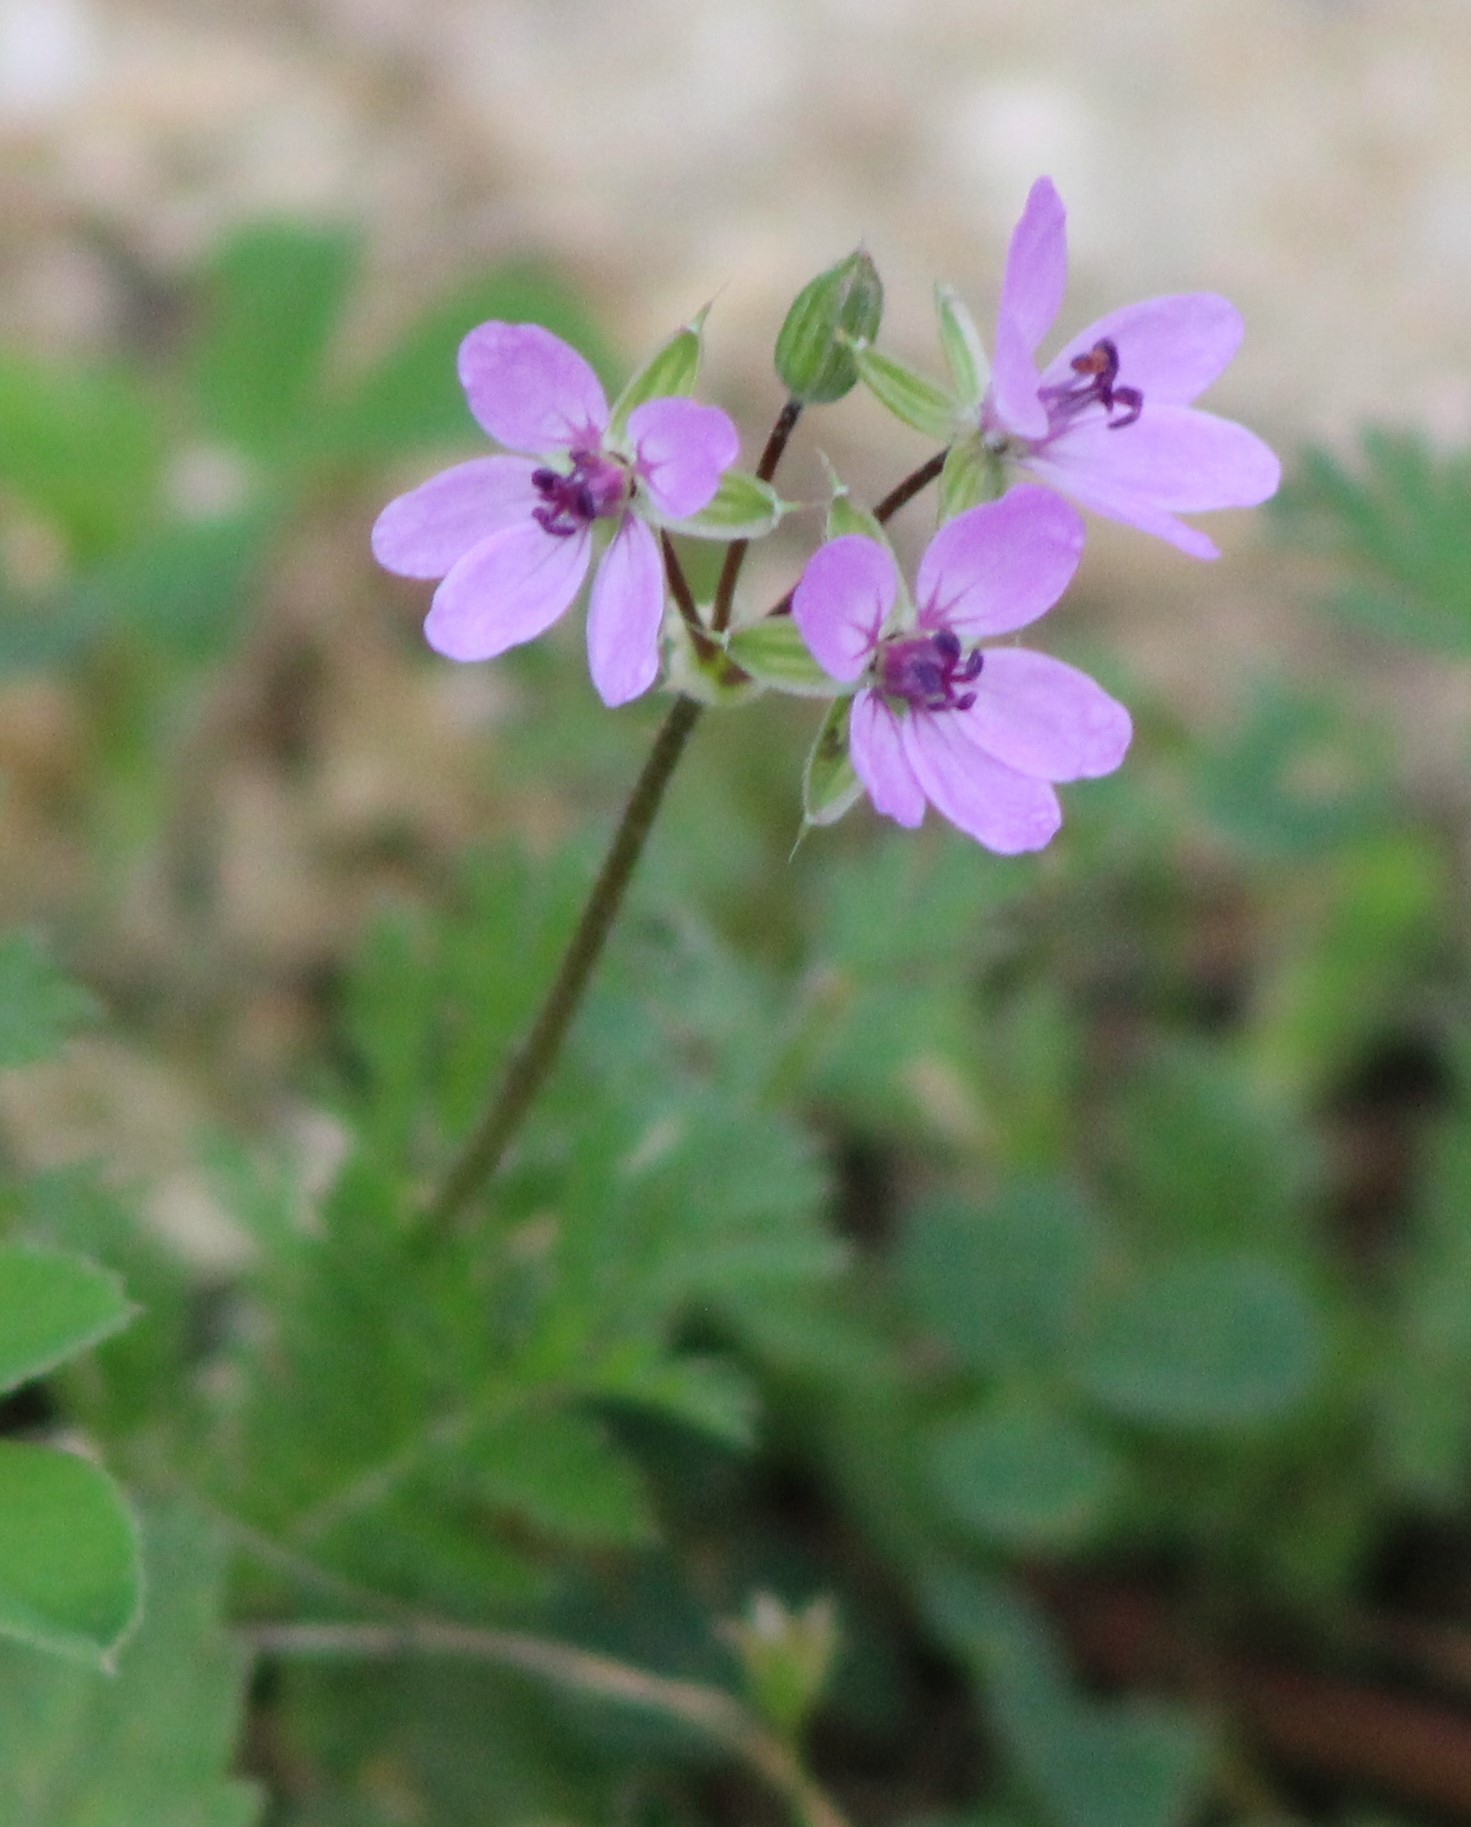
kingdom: Plantae
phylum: Tracheophyta
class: Magnoliopsida
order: Geraniales
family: Geraniaceae
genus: Erodium
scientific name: Erodium cicutarium
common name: Common stork's-bill
